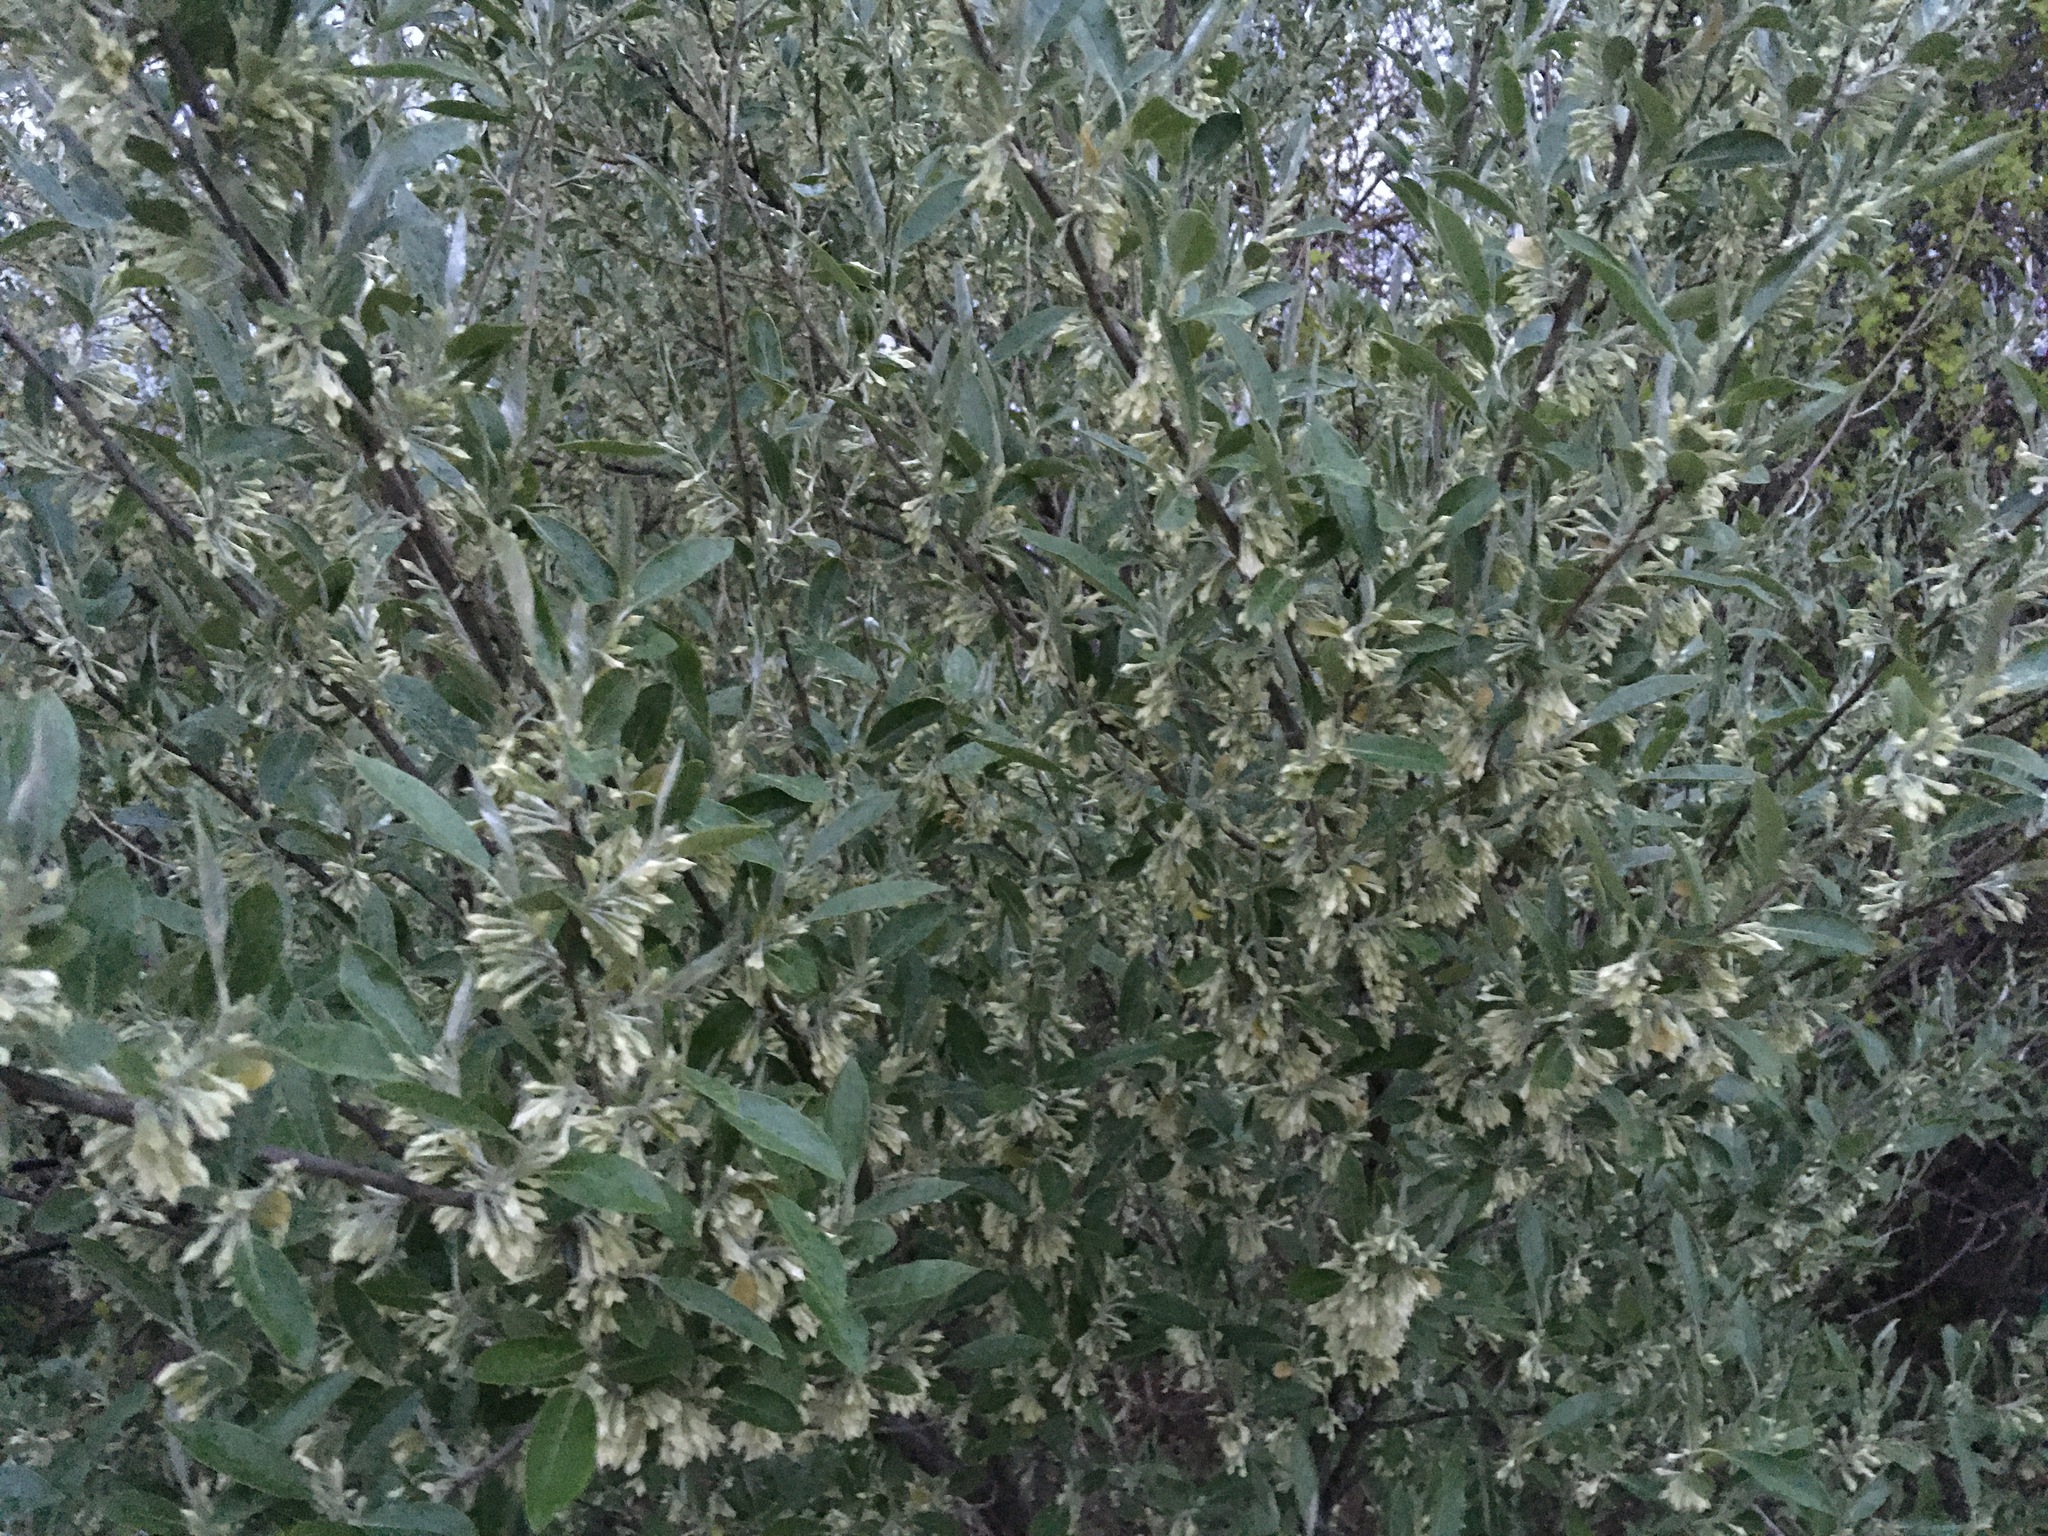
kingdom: Plantae
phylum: Tracheophyta
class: Magnoliopsida
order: Rosales
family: Elaeagnaceae
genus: Elaeagnus
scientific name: Elaeagnus umbellata
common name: Autumn olive
